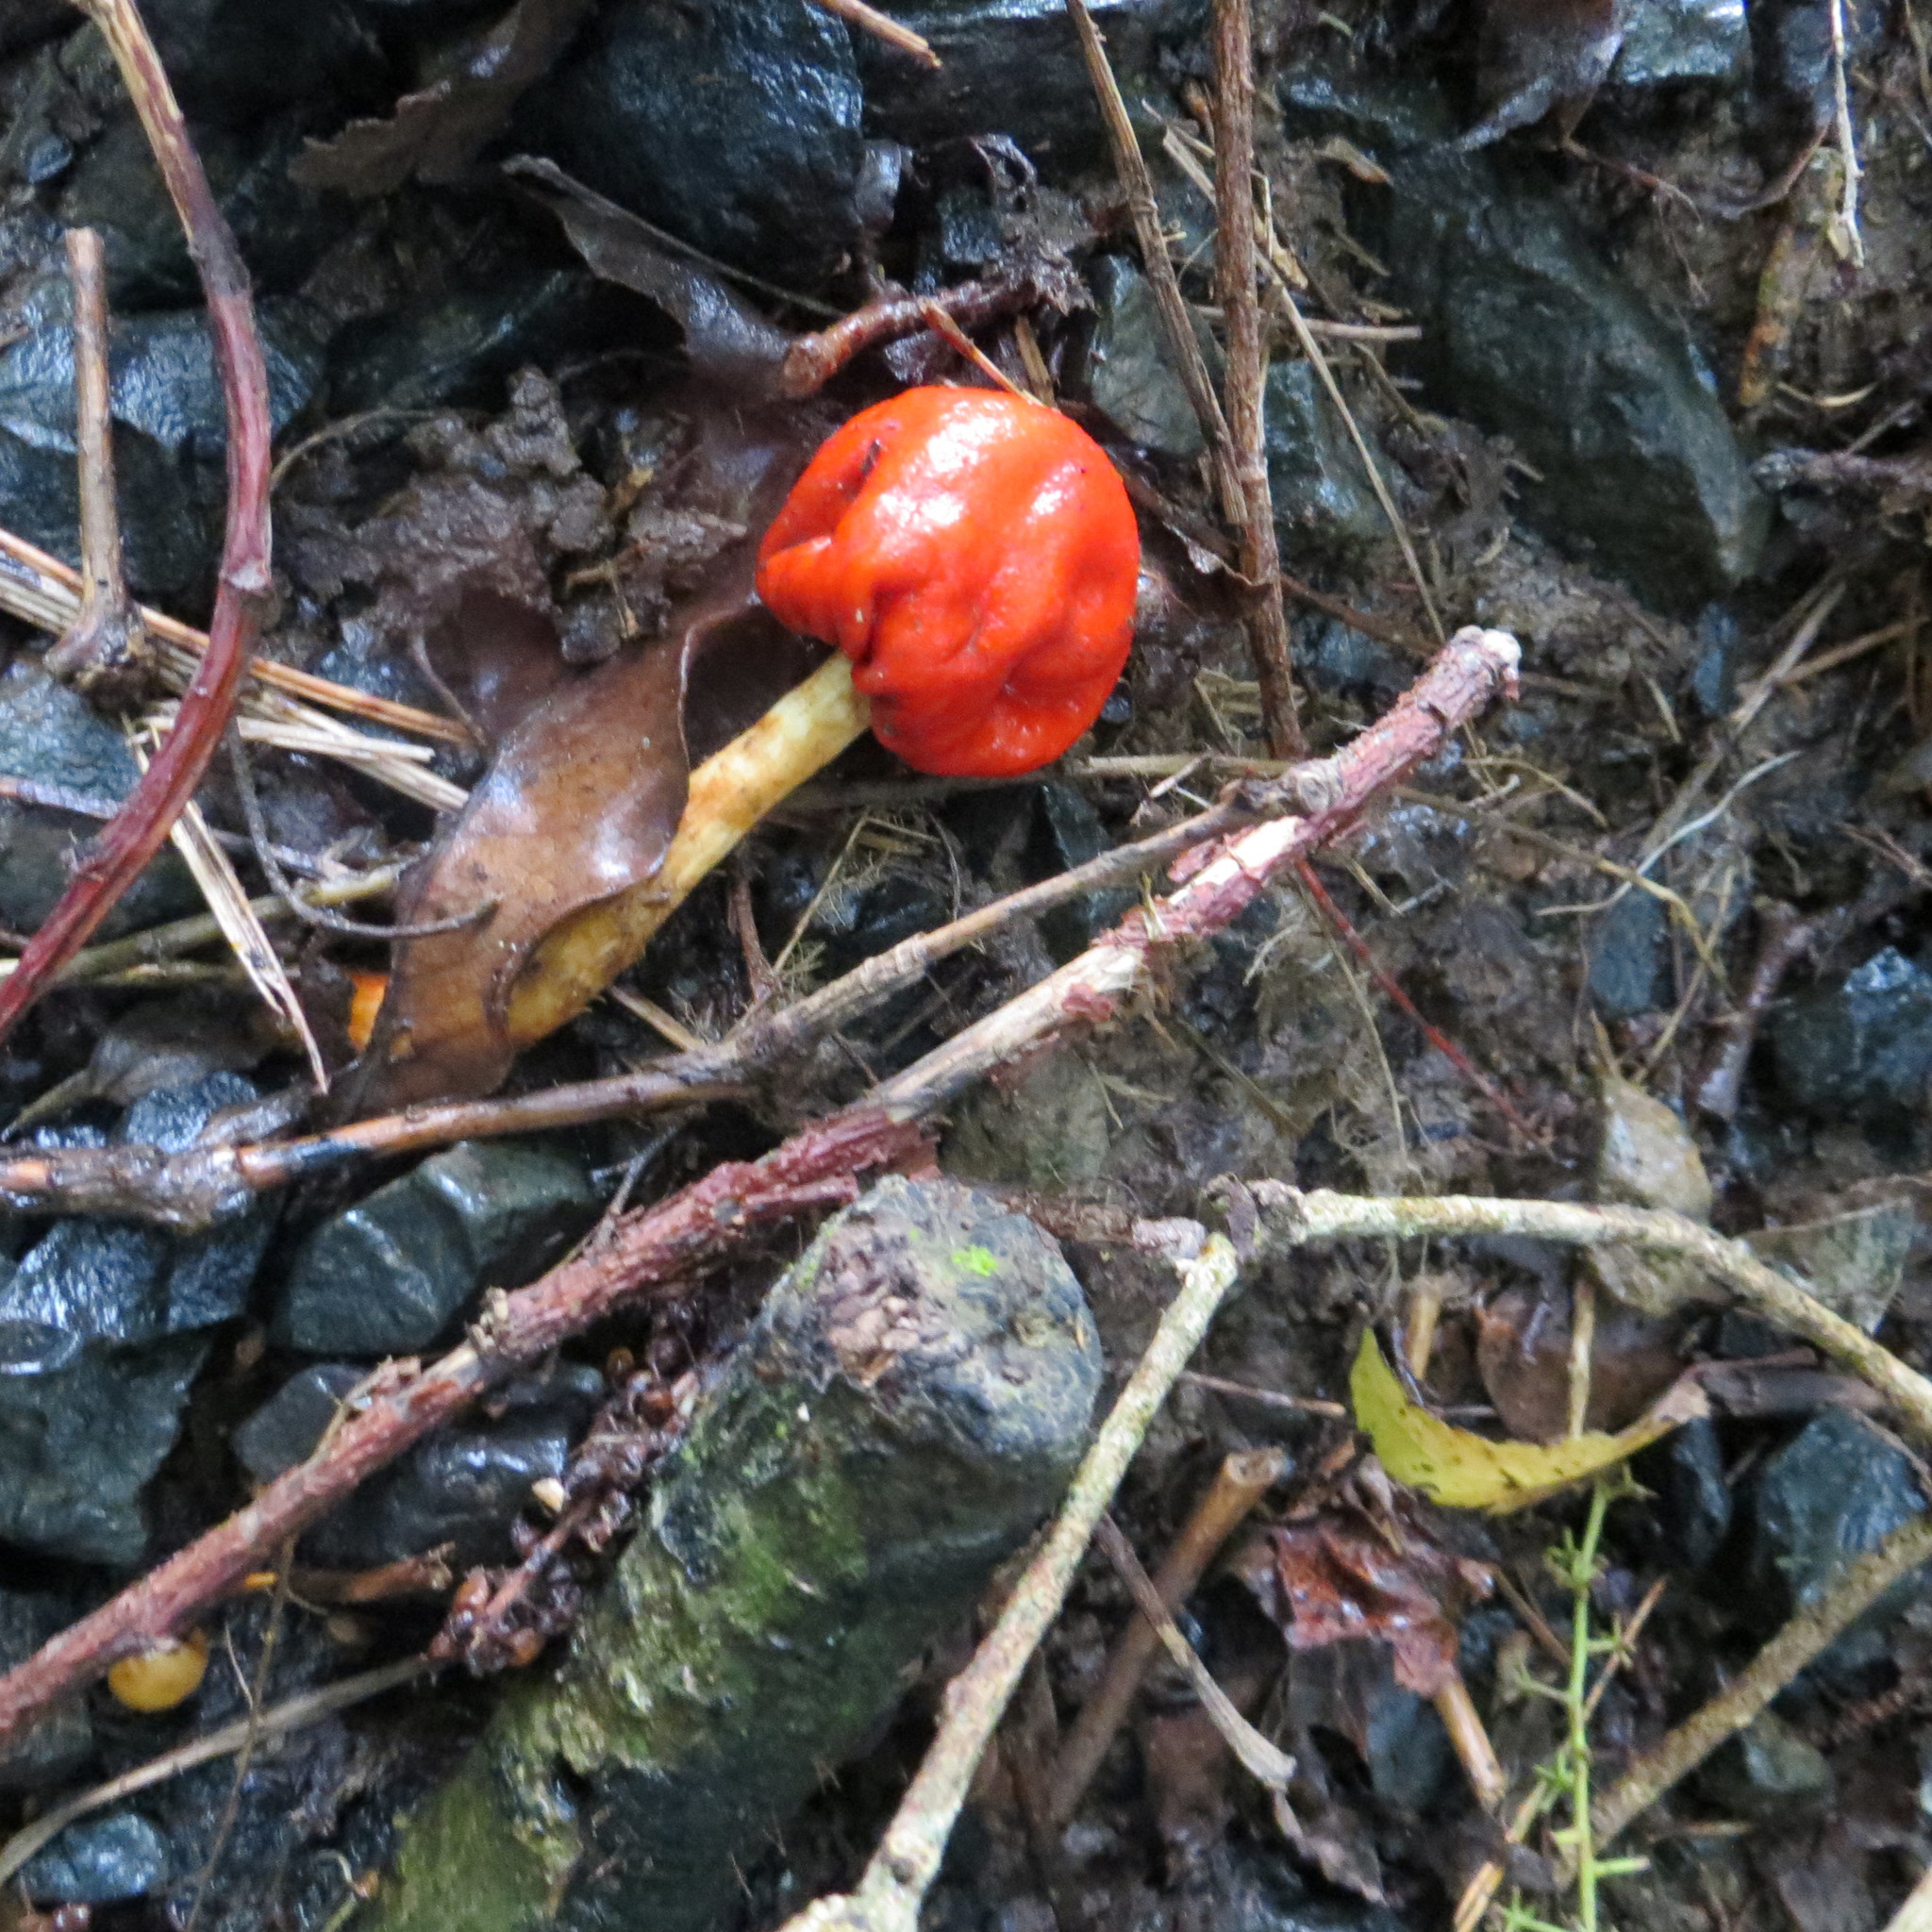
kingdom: Fungi
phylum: Basidiomycota
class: Agaricomycetes
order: Agaricales
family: Strophariaceae
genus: Leratiomyces
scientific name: Leratiomyces erythrocephalus
